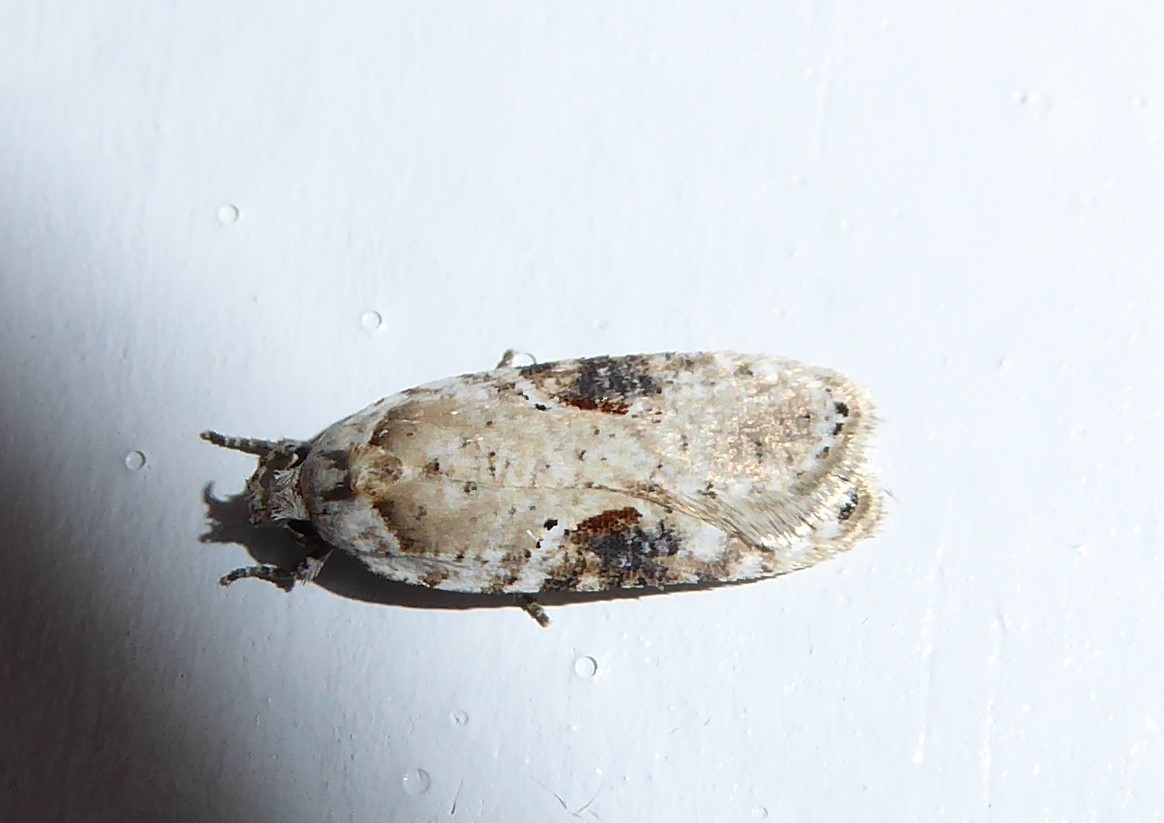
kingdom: Animalia
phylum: Arthropoda
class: Insecta
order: Lepidoptera
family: Depressariidae
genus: Agonopterix
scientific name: Agonopterix alstroemeriana
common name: Moth
